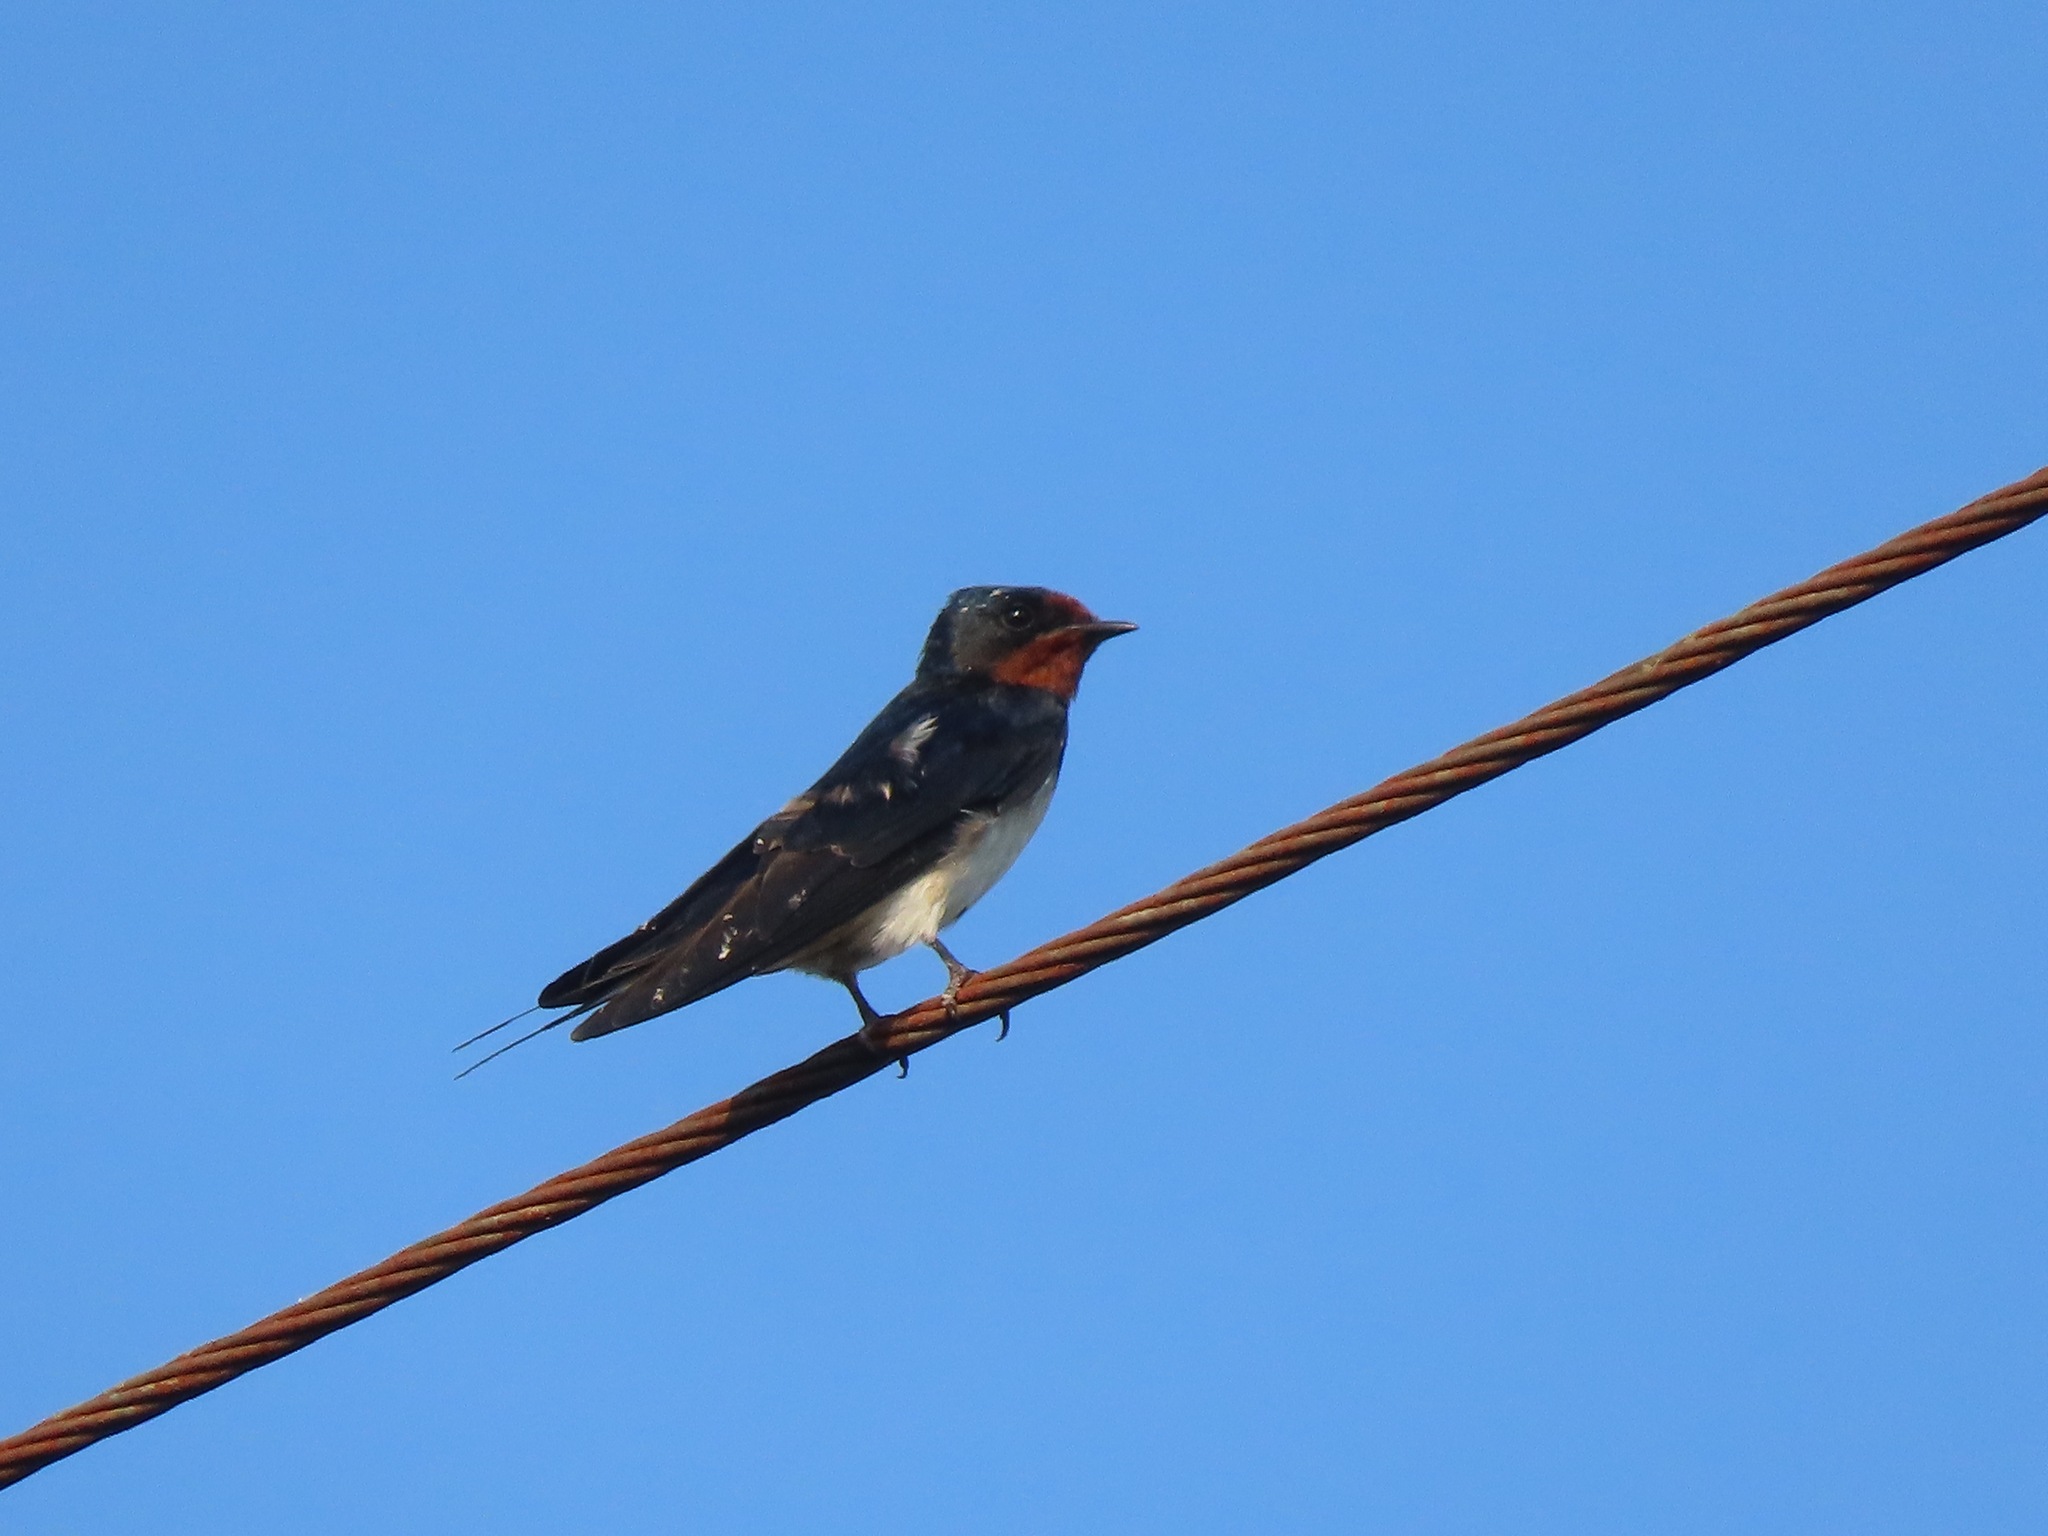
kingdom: Animalia
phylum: Chordata
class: Aves
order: Passeriformes
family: Hirundinidae
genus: Hirundo
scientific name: Hirundo tahitica
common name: Pacific swallow
